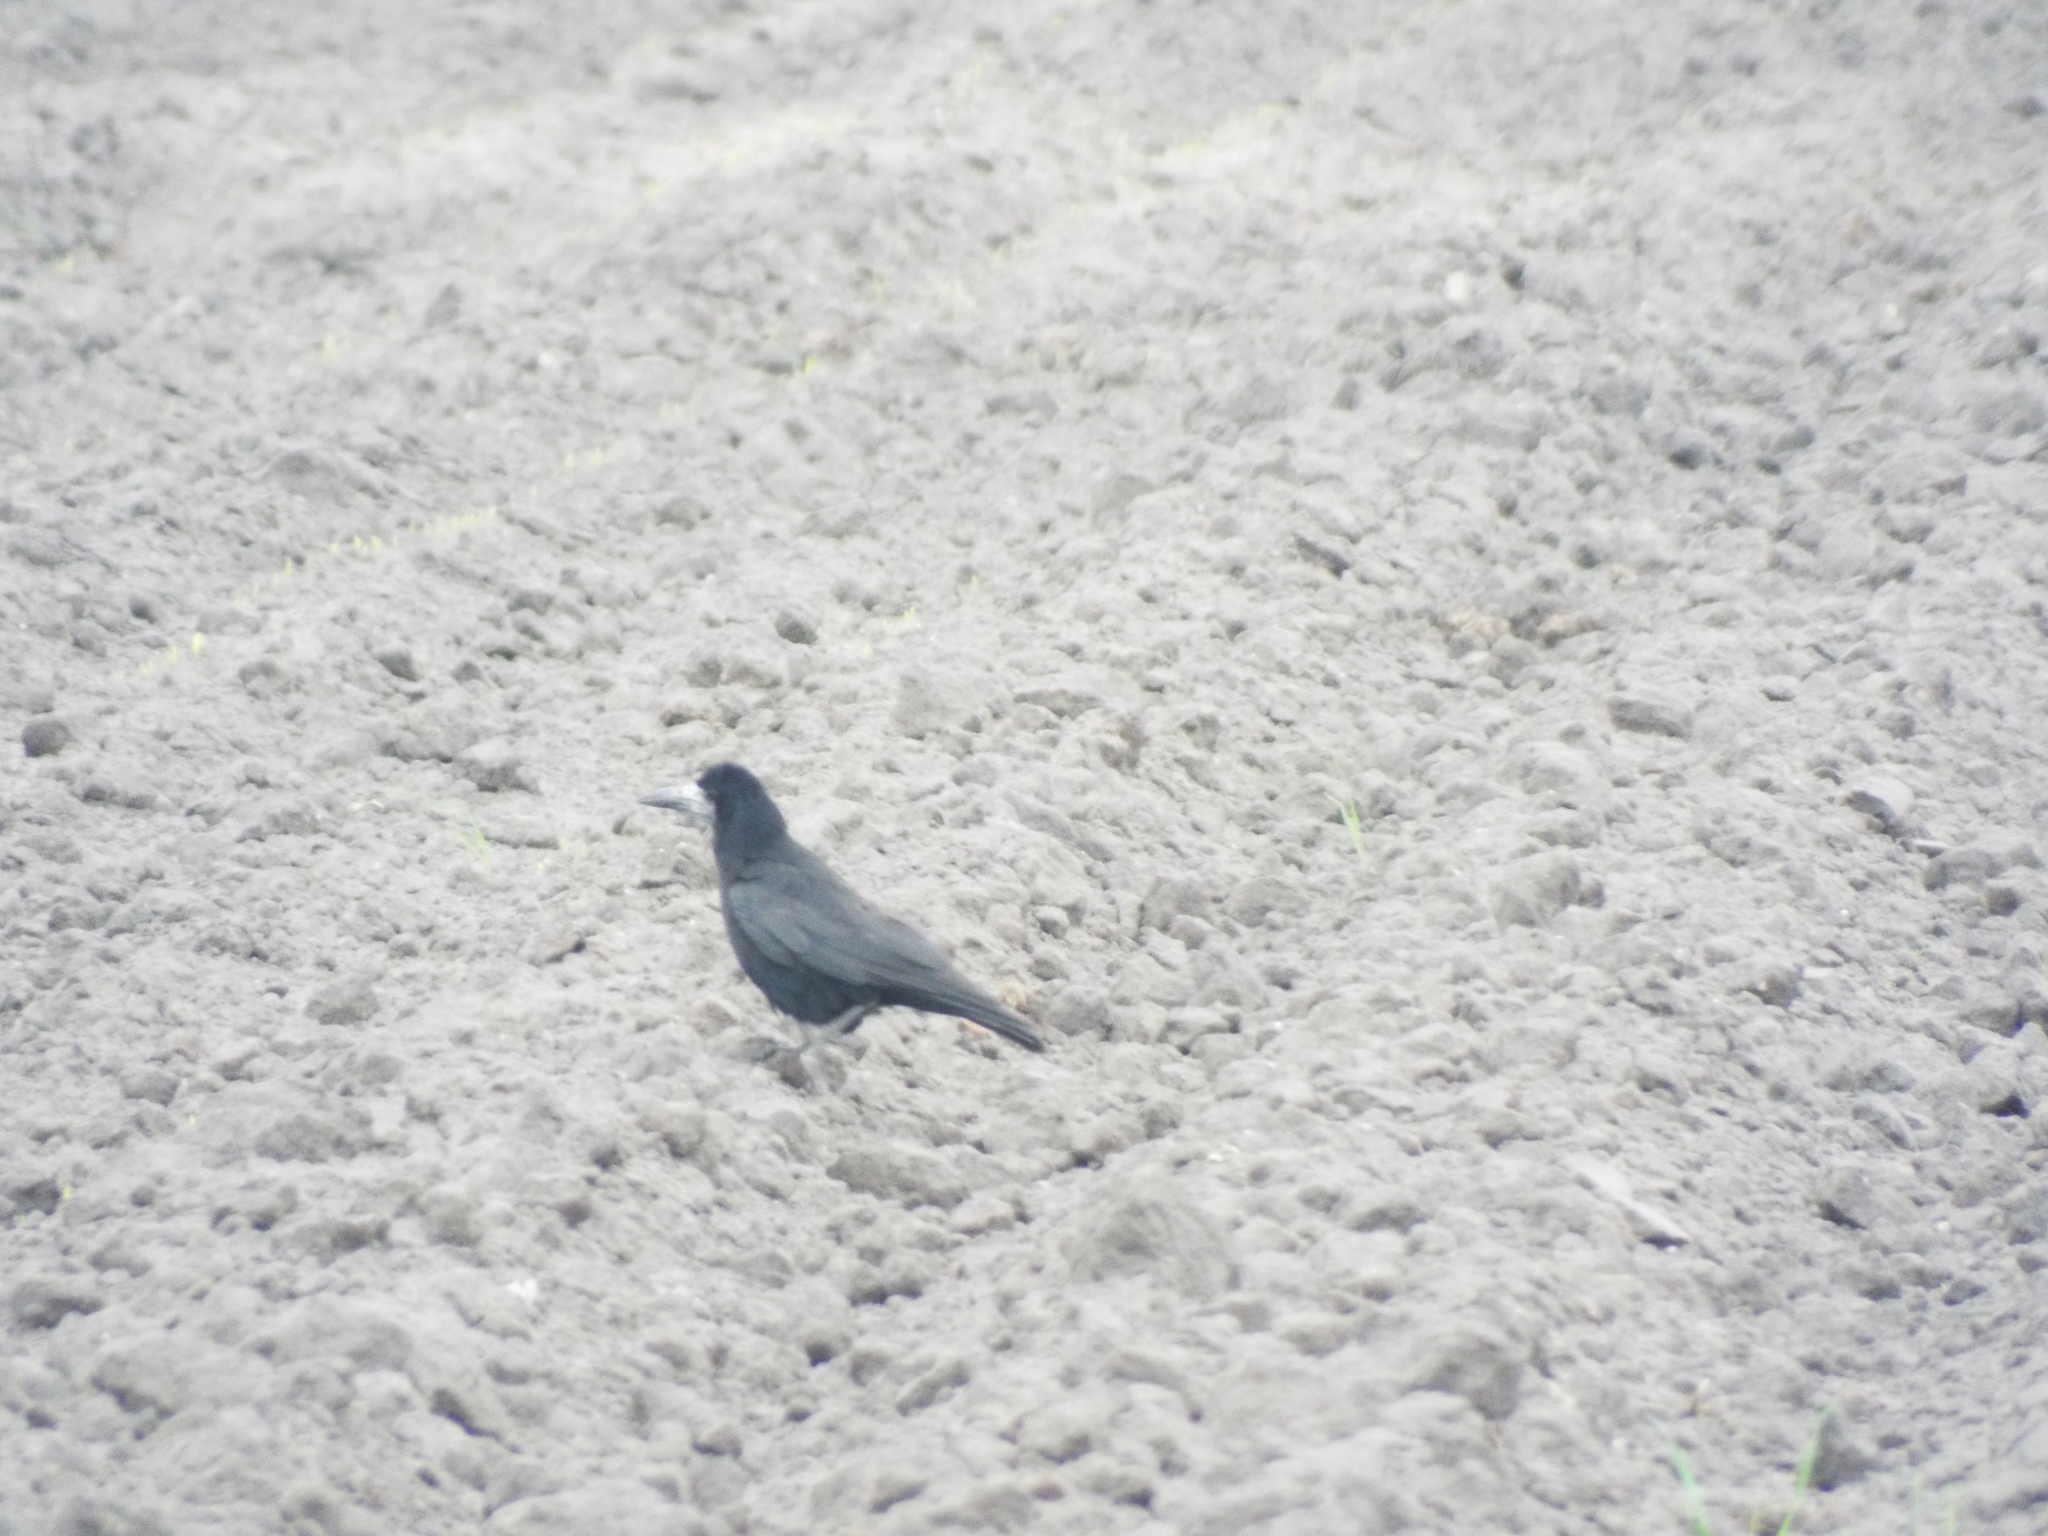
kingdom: Animalia
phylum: Chordata
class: Aves
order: Passeriformes
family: Corvidae
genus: Corvus
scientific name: Corvus frugilegus
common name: Rook
